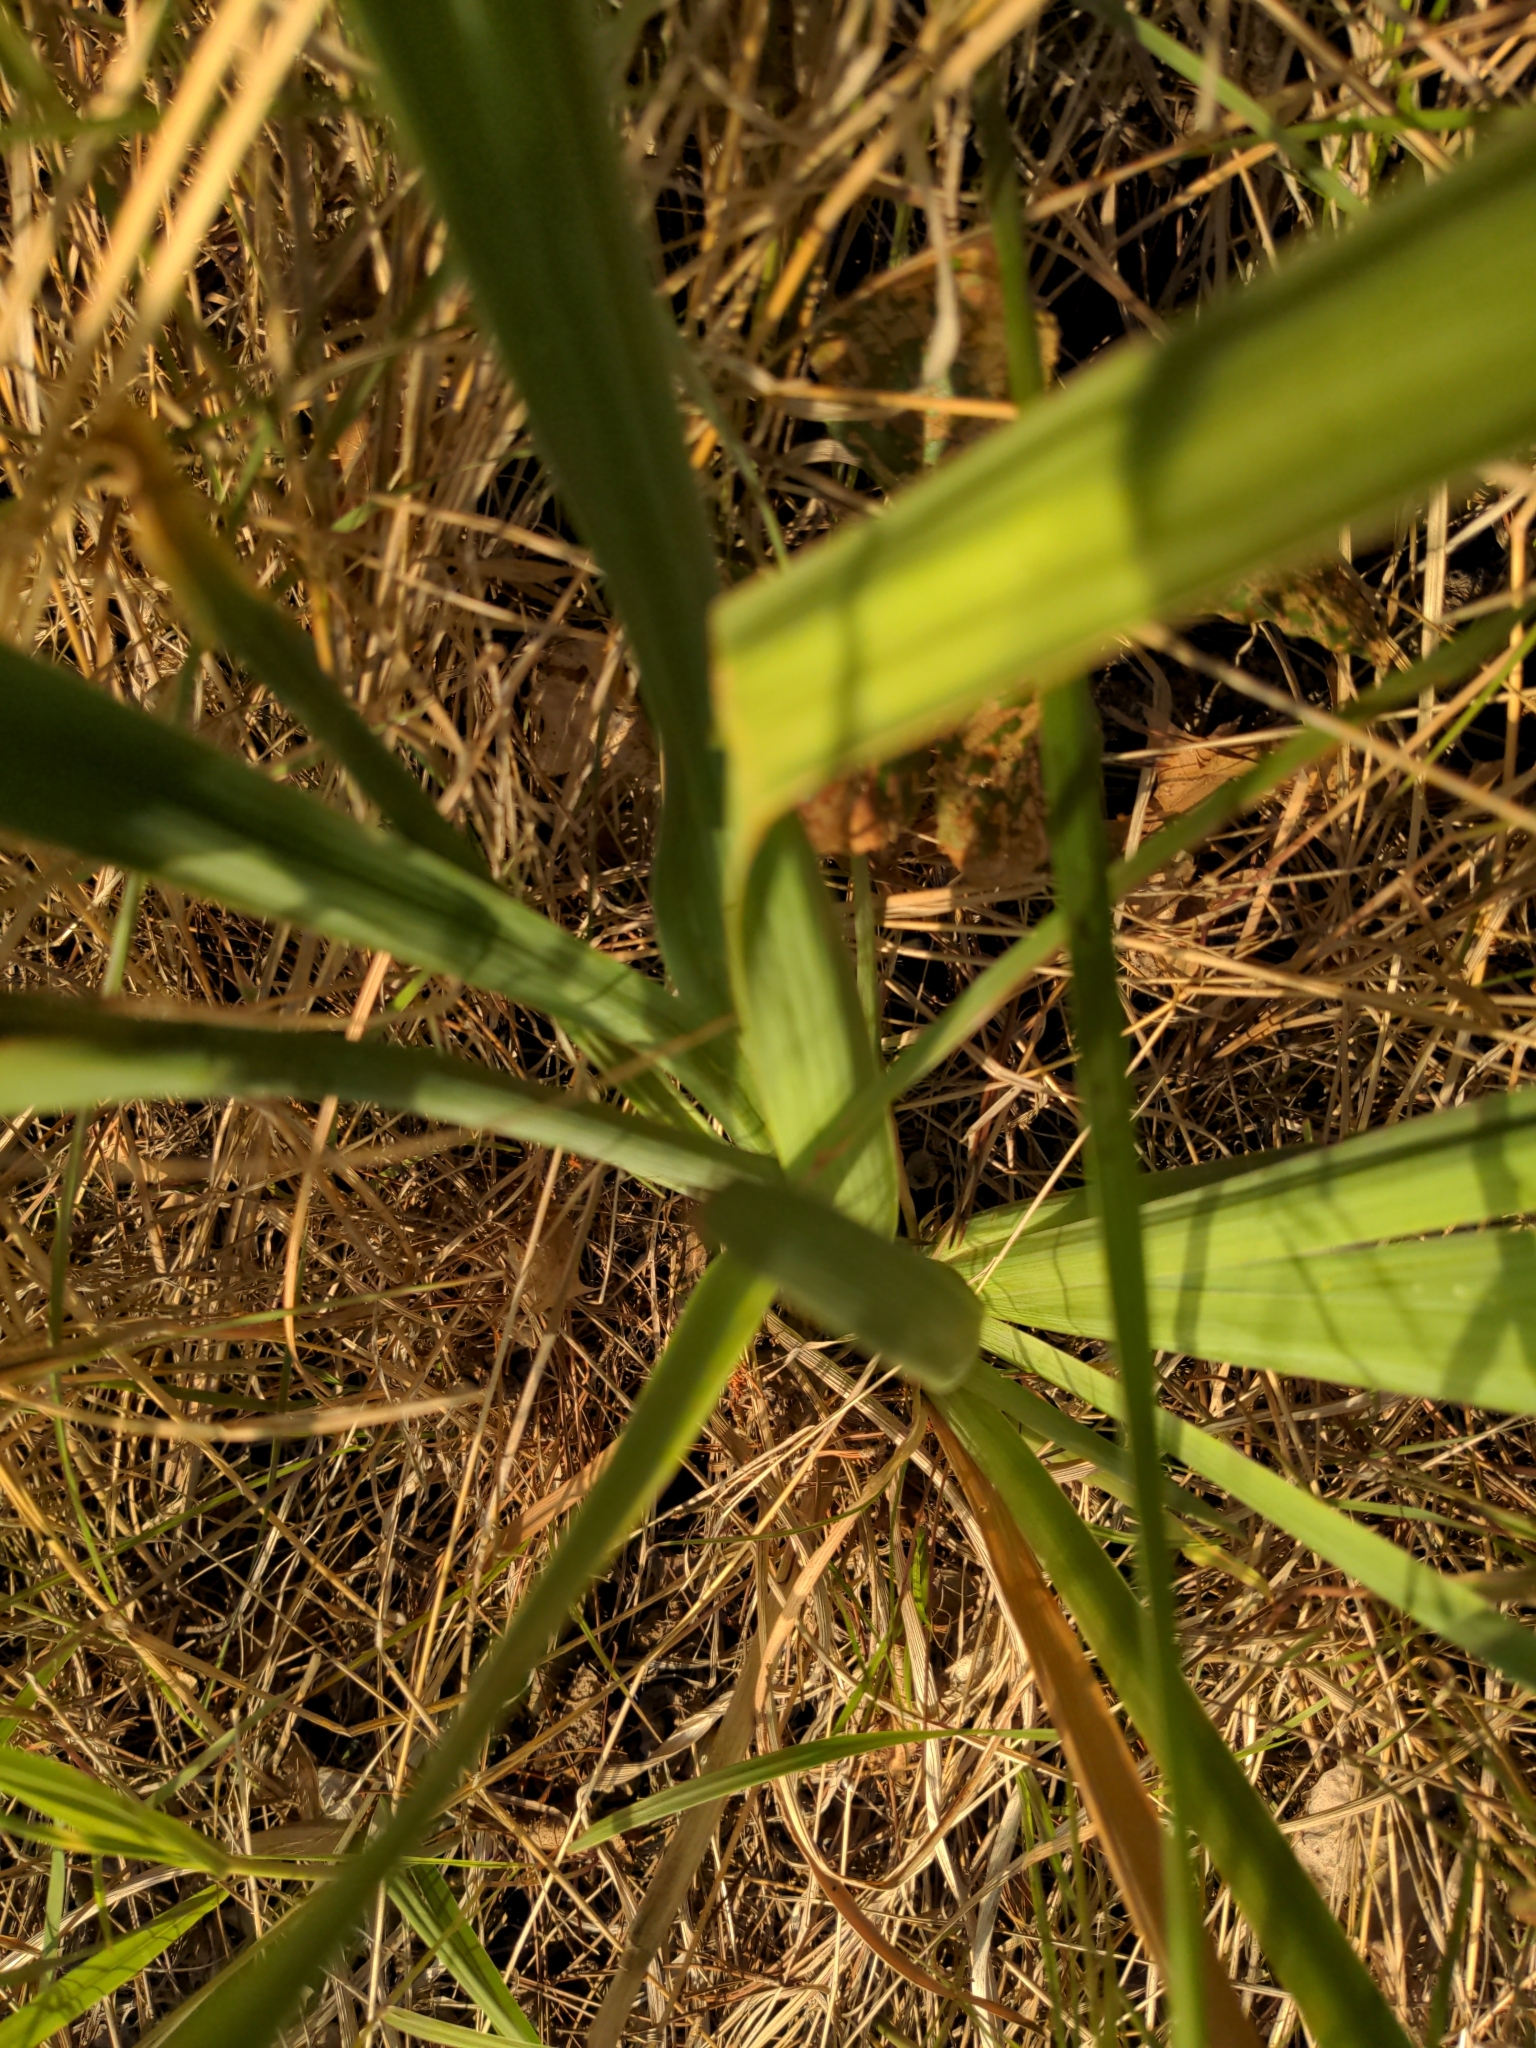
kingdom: Plantae
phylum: Tracheophyta
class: Liliopsida
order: Asparagales
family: Iridaceae
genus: Iris
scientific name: Iris versicolor
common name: Purple iris
